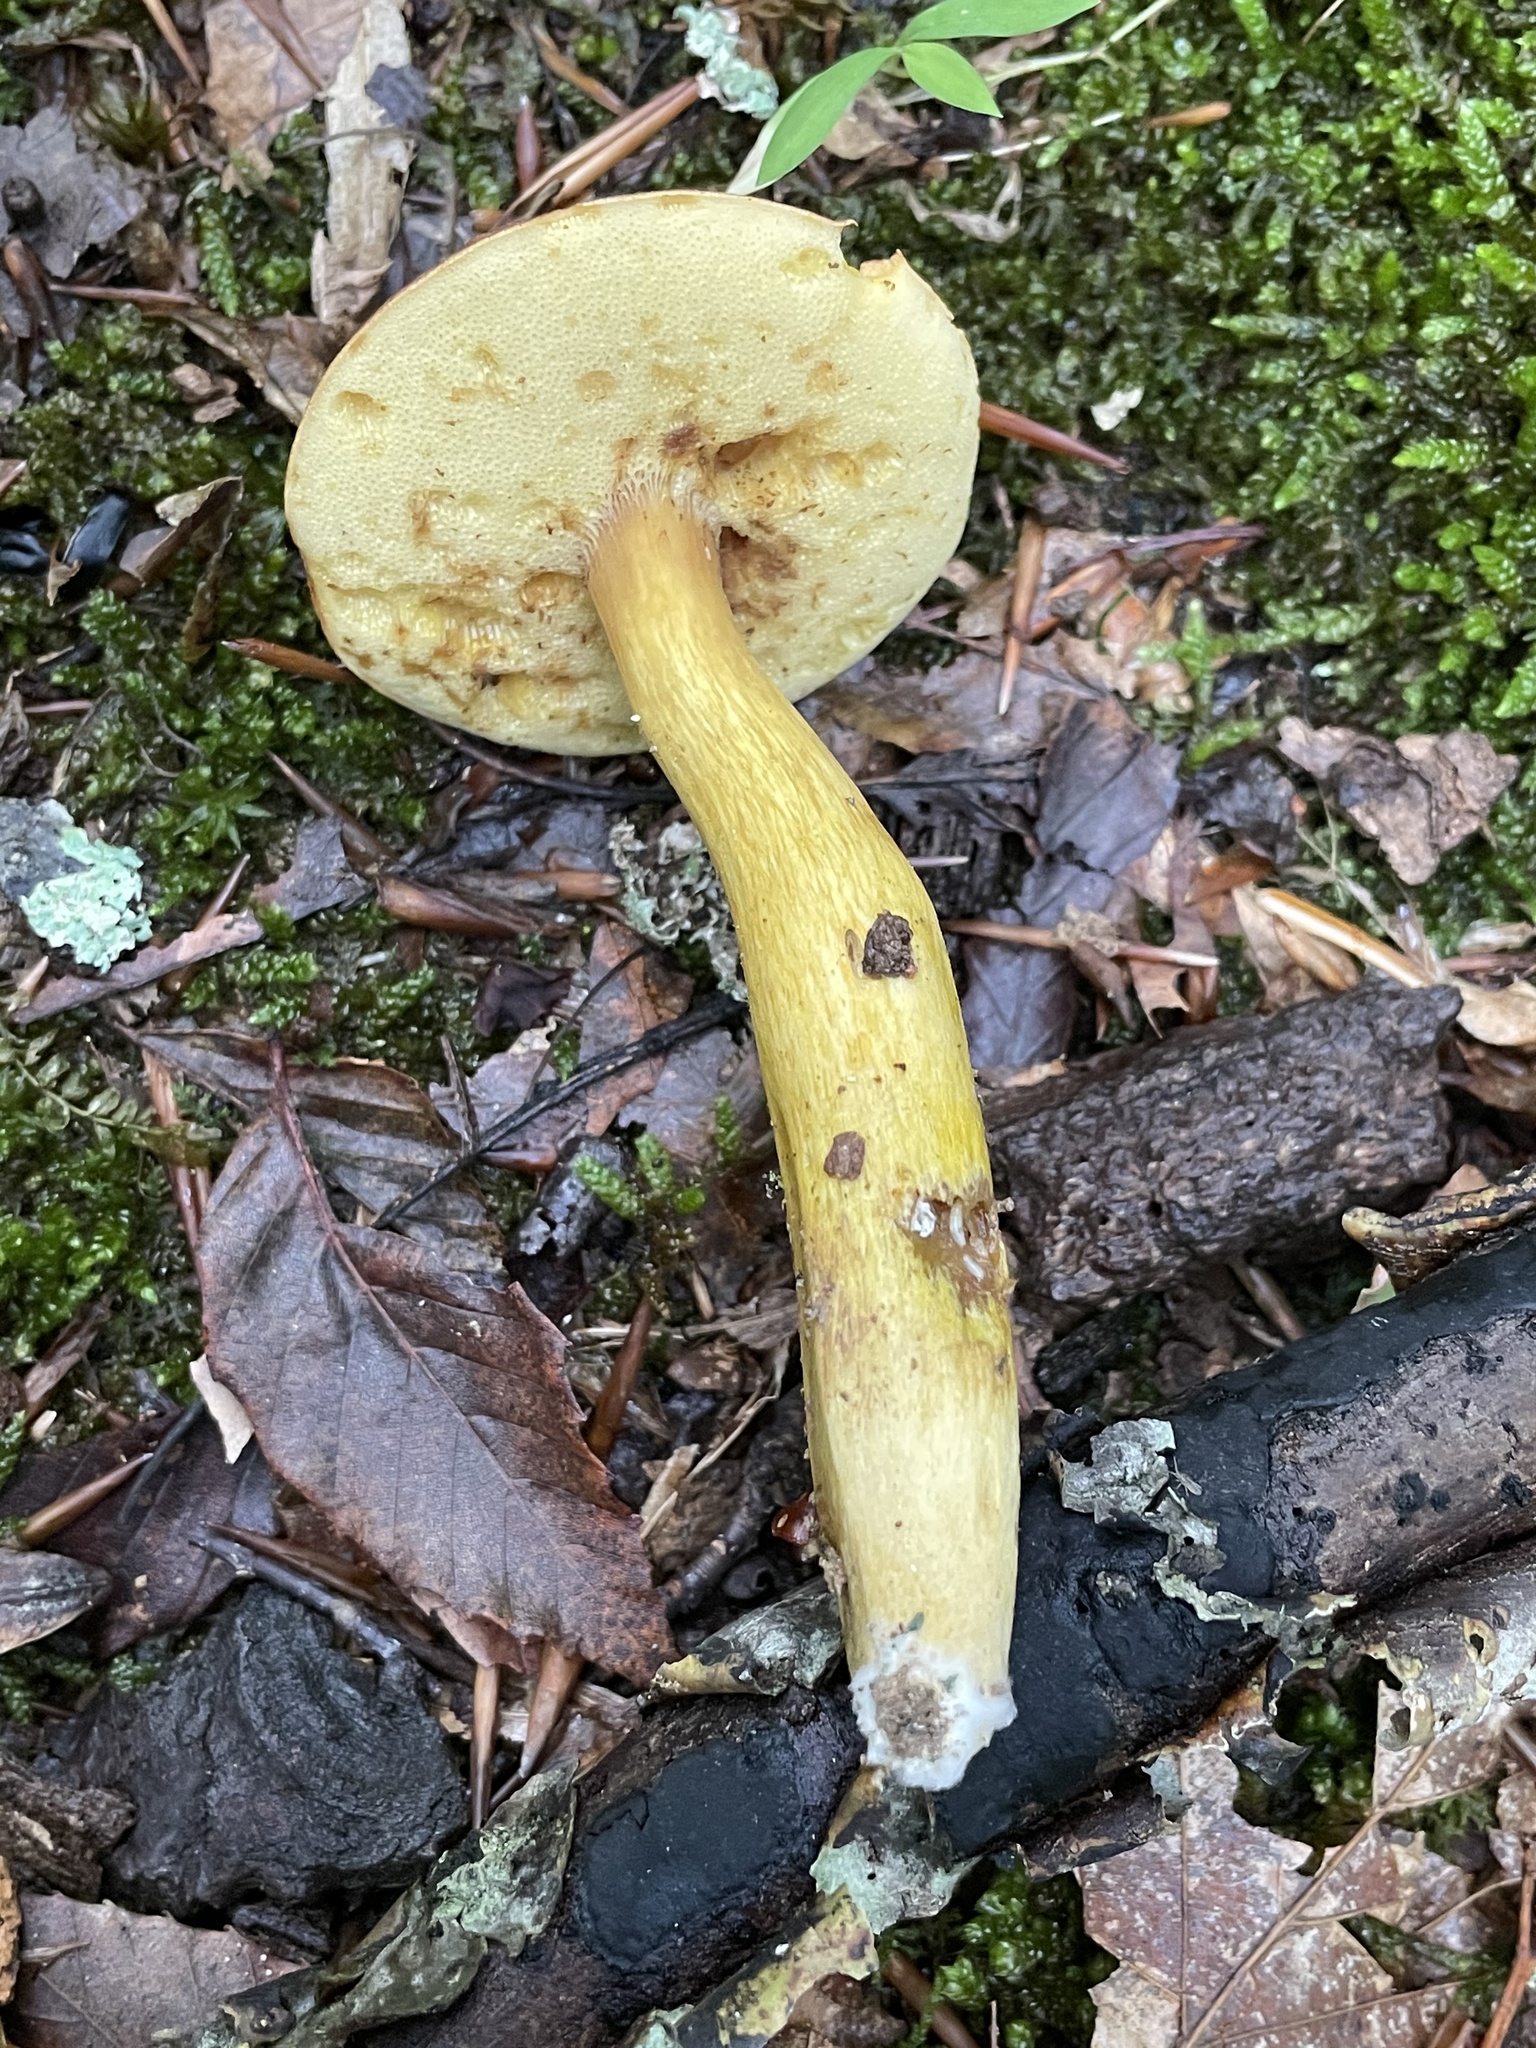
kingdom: Fungi
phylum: Basidiomycota
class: Agaricomycetes
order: Boletales
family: Boletaceae
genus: Aureoboletus
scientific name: Aureoboletus roxanae
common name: Roxane's bolete
